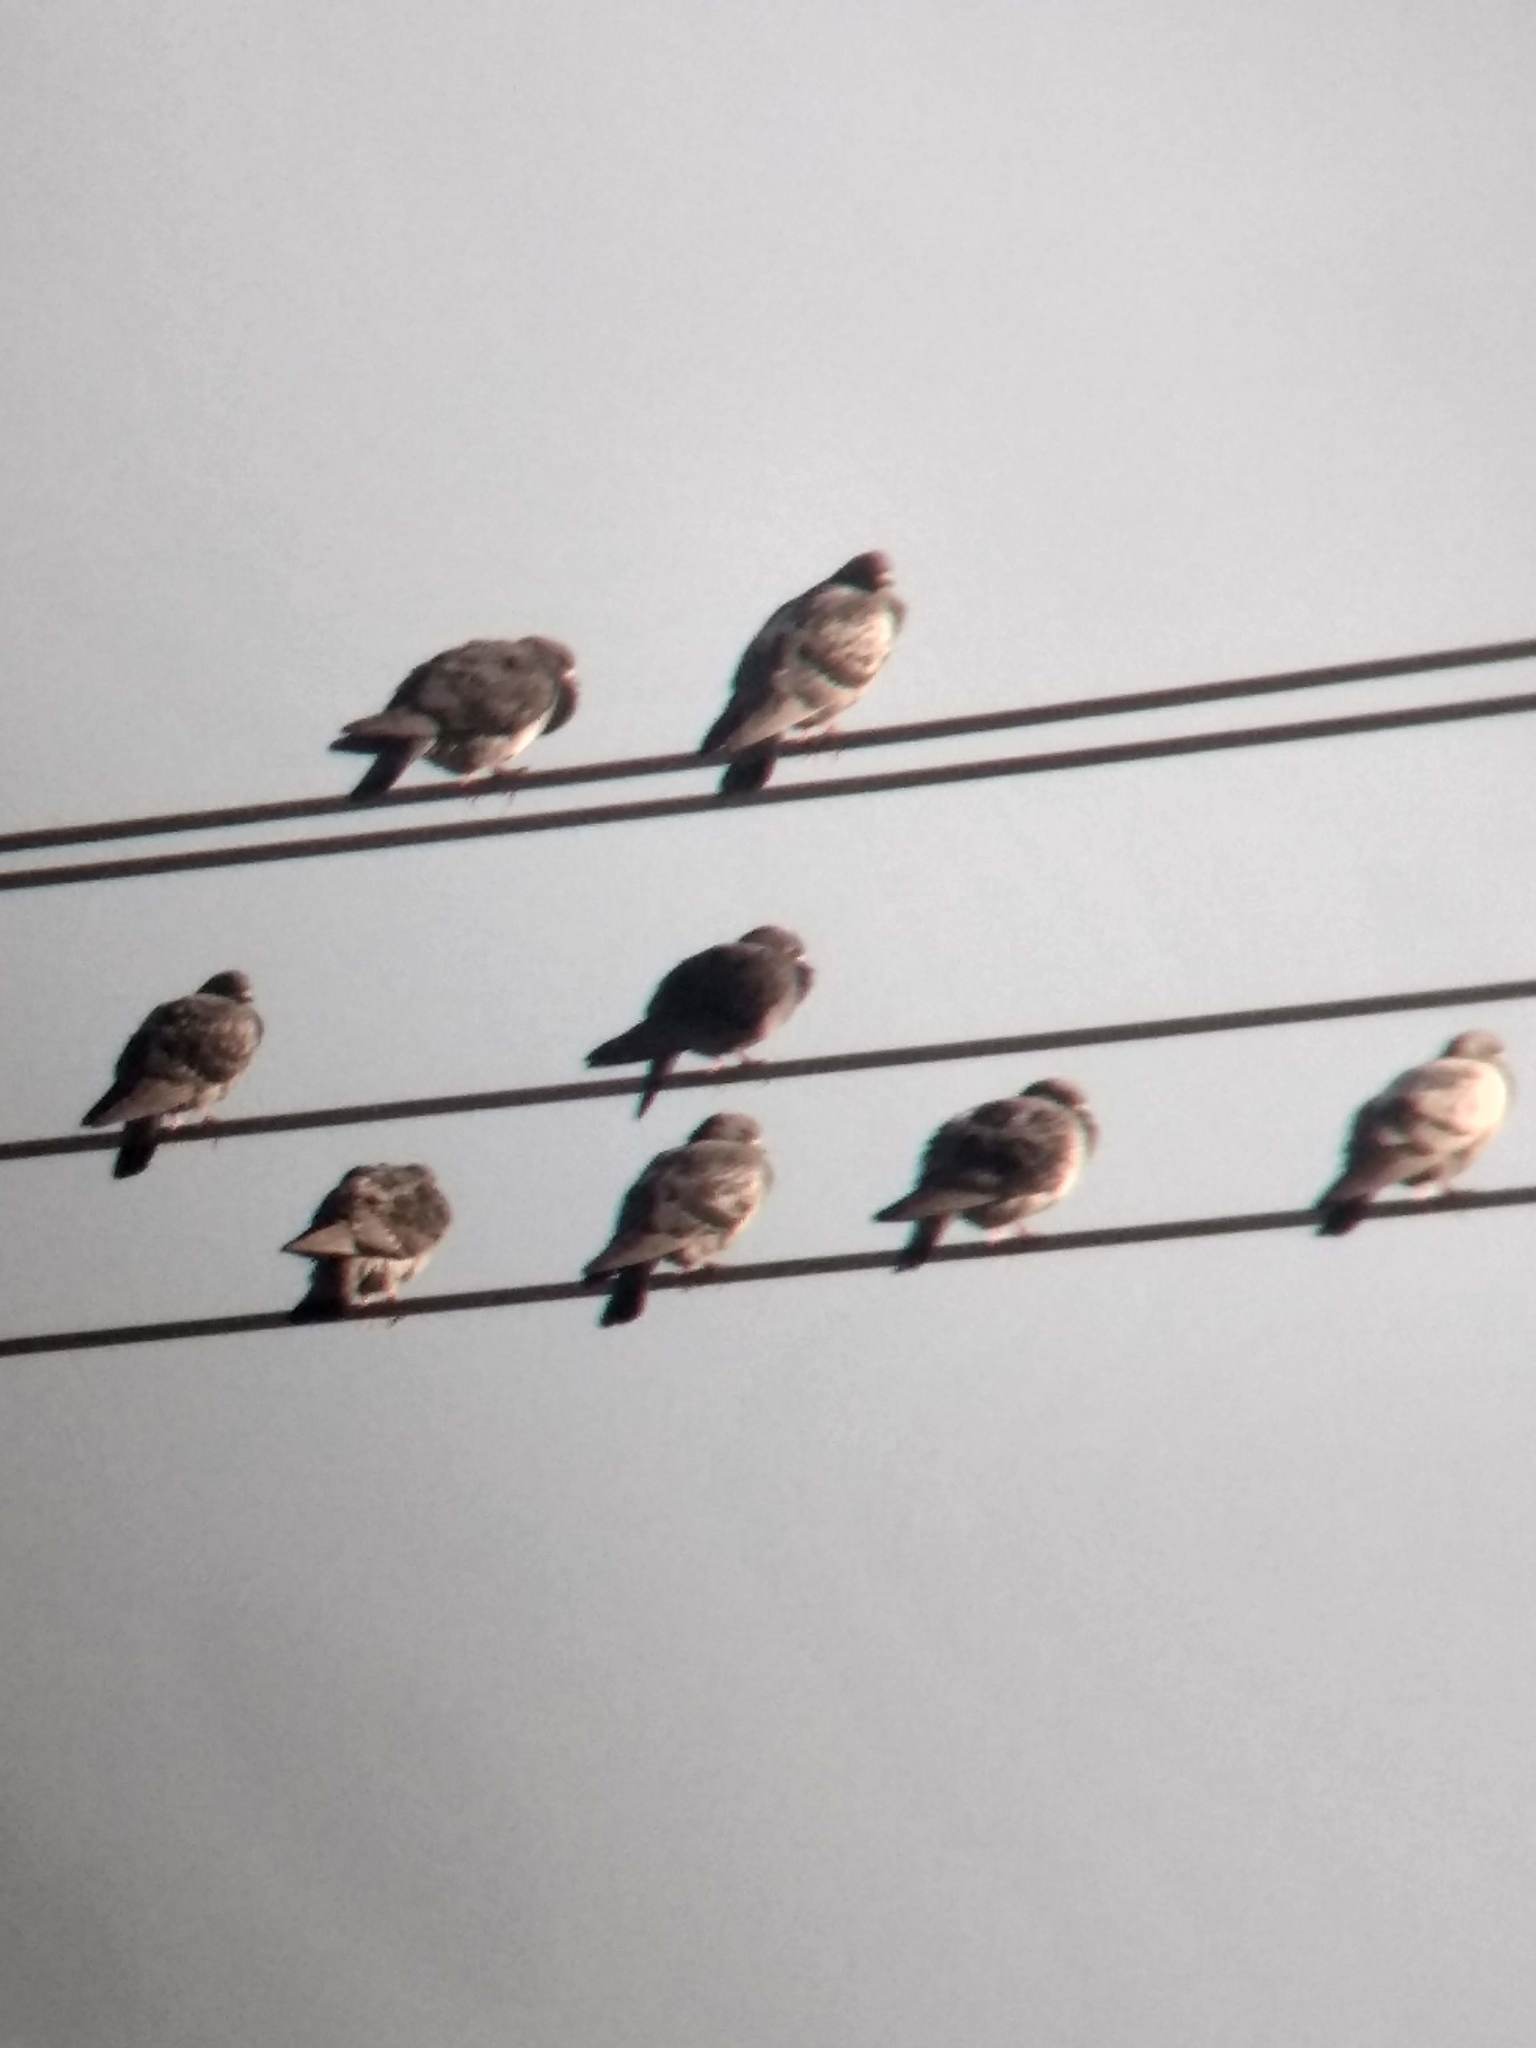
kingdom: Animalia
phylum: Chordata
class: Aves
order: Columbiformes
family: Columbidae
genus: Columba
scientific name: Columba livia
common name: Rock pigeon
